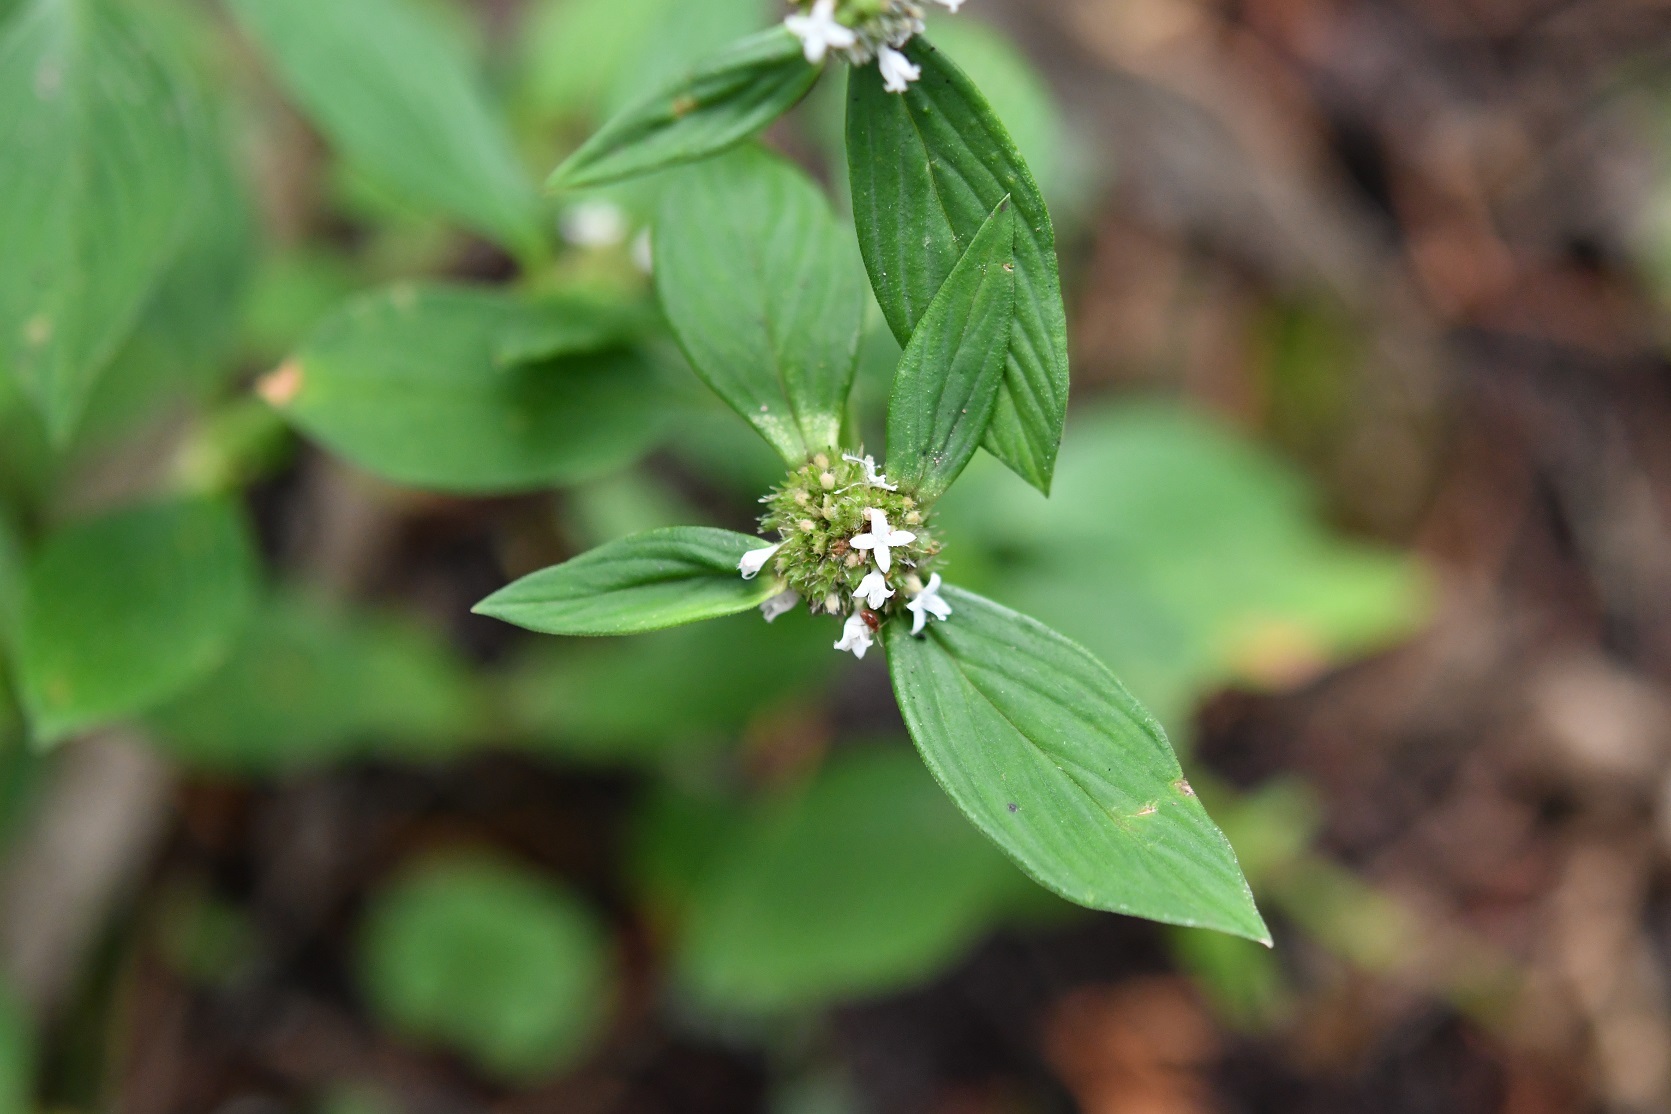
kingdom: Plantae
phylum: Tracheophyta
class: Magnoliopsida
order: Gentianales
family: Rubiaceae
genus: Spermacoce
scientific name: Spermacoce remota
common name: Woodland false buttonweed
